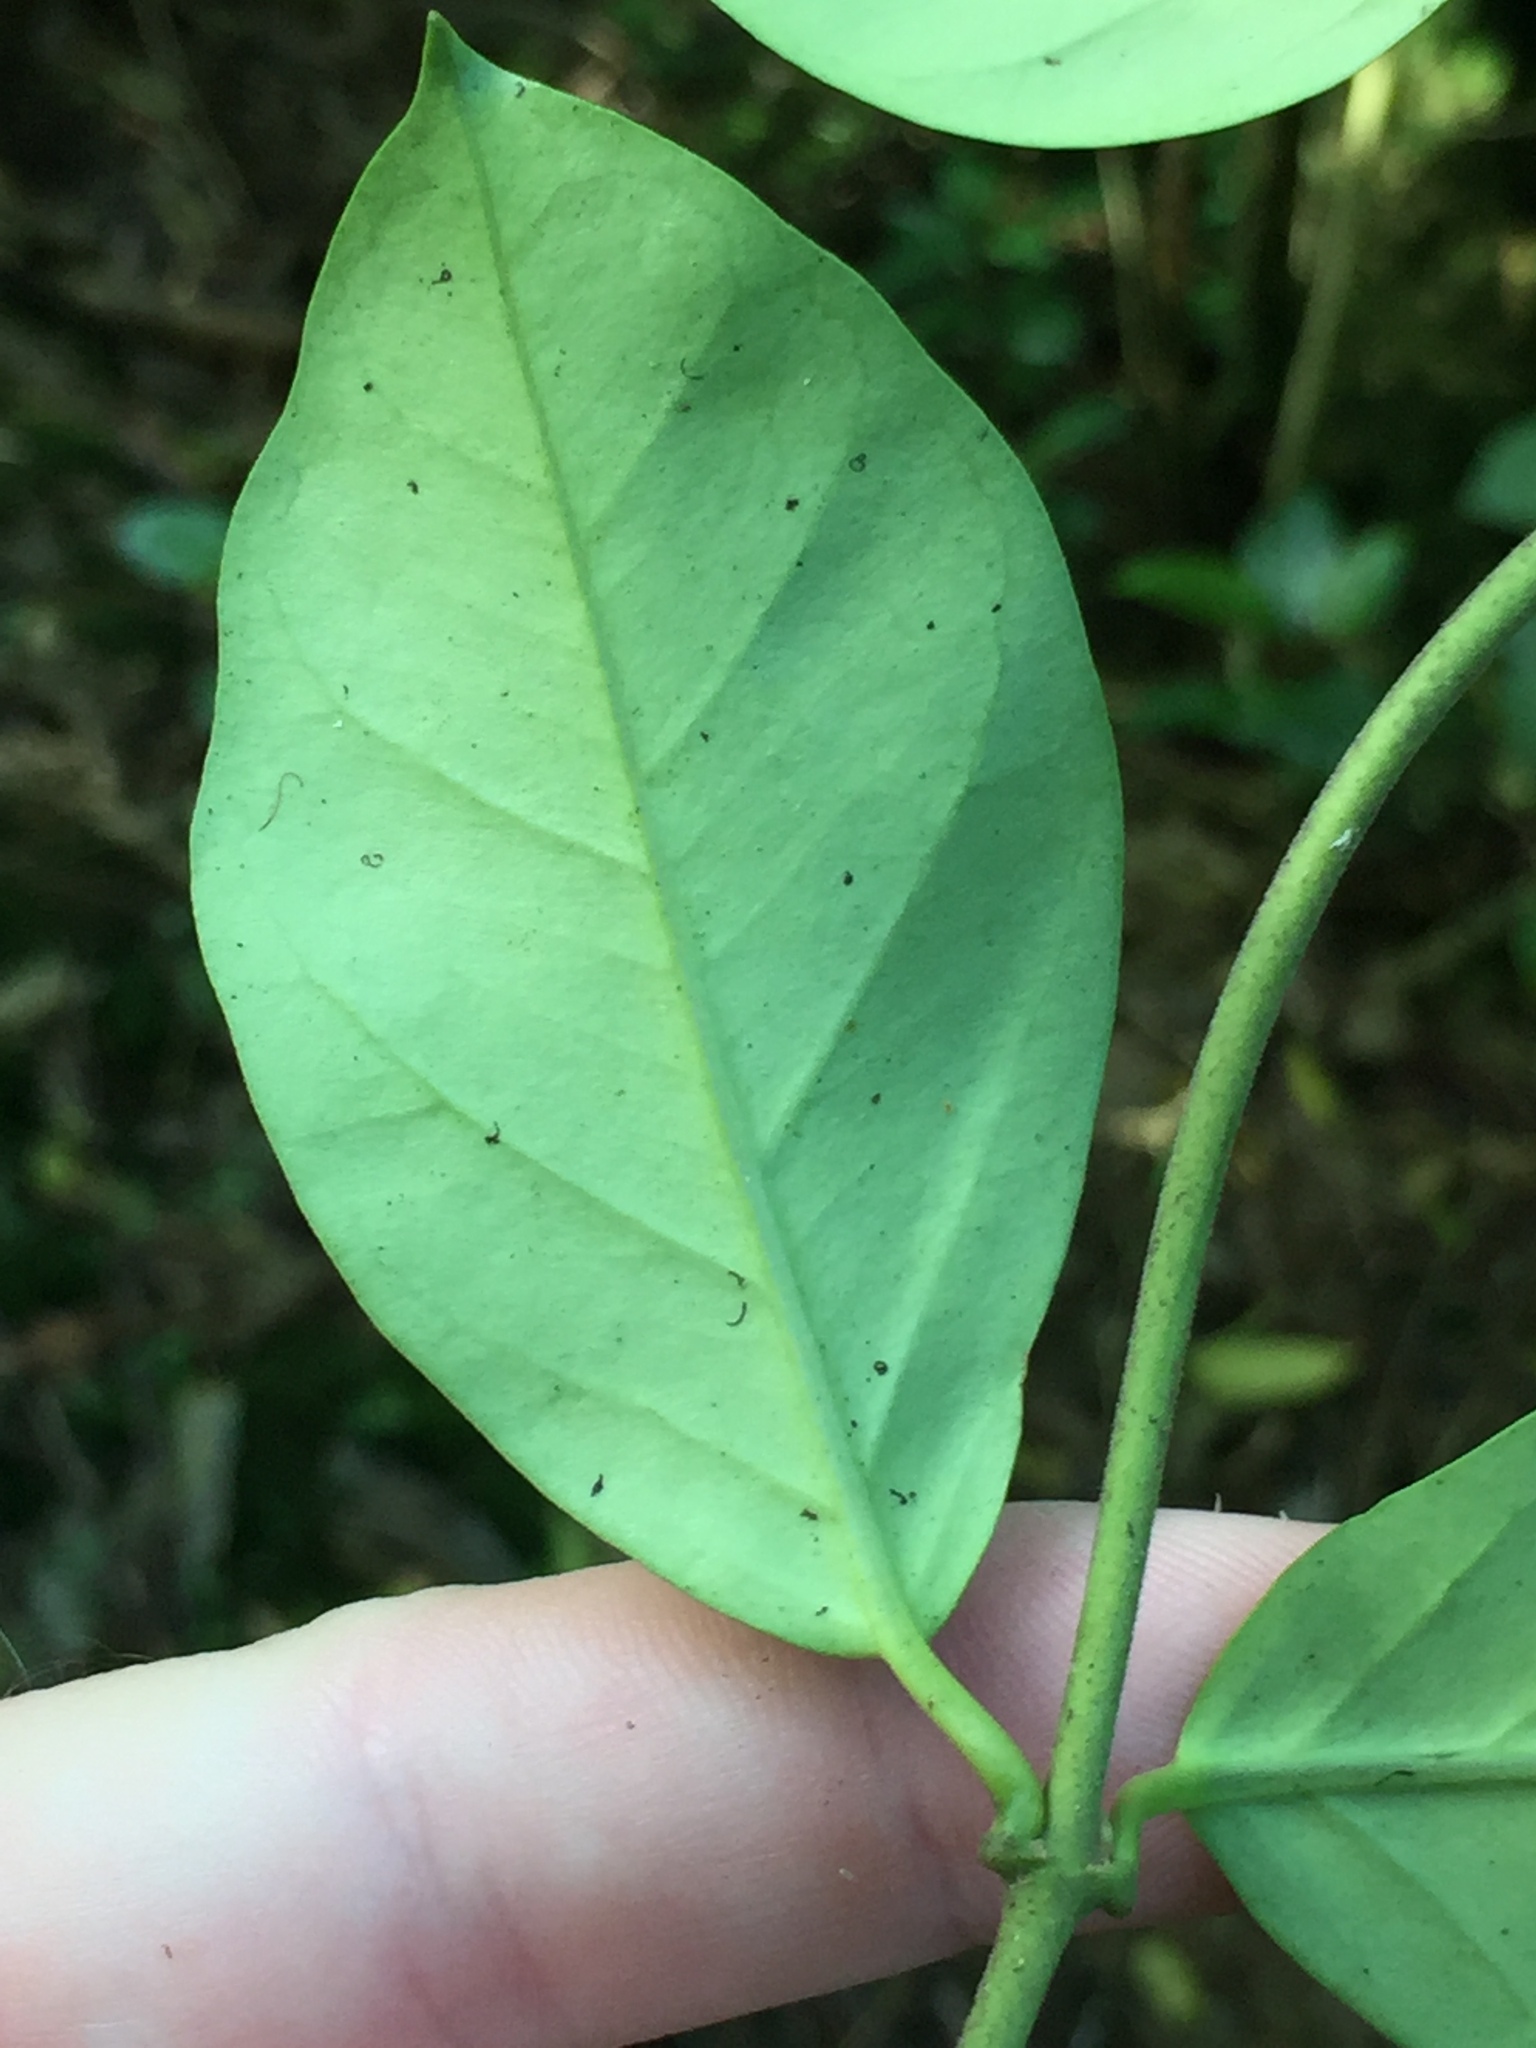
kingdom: Plantae
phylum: Tracheophyta
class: Magnoliopsida
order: Gentianales
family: Apocynaceae
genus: Parsonsia
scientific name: Parsonsia heterophylla
